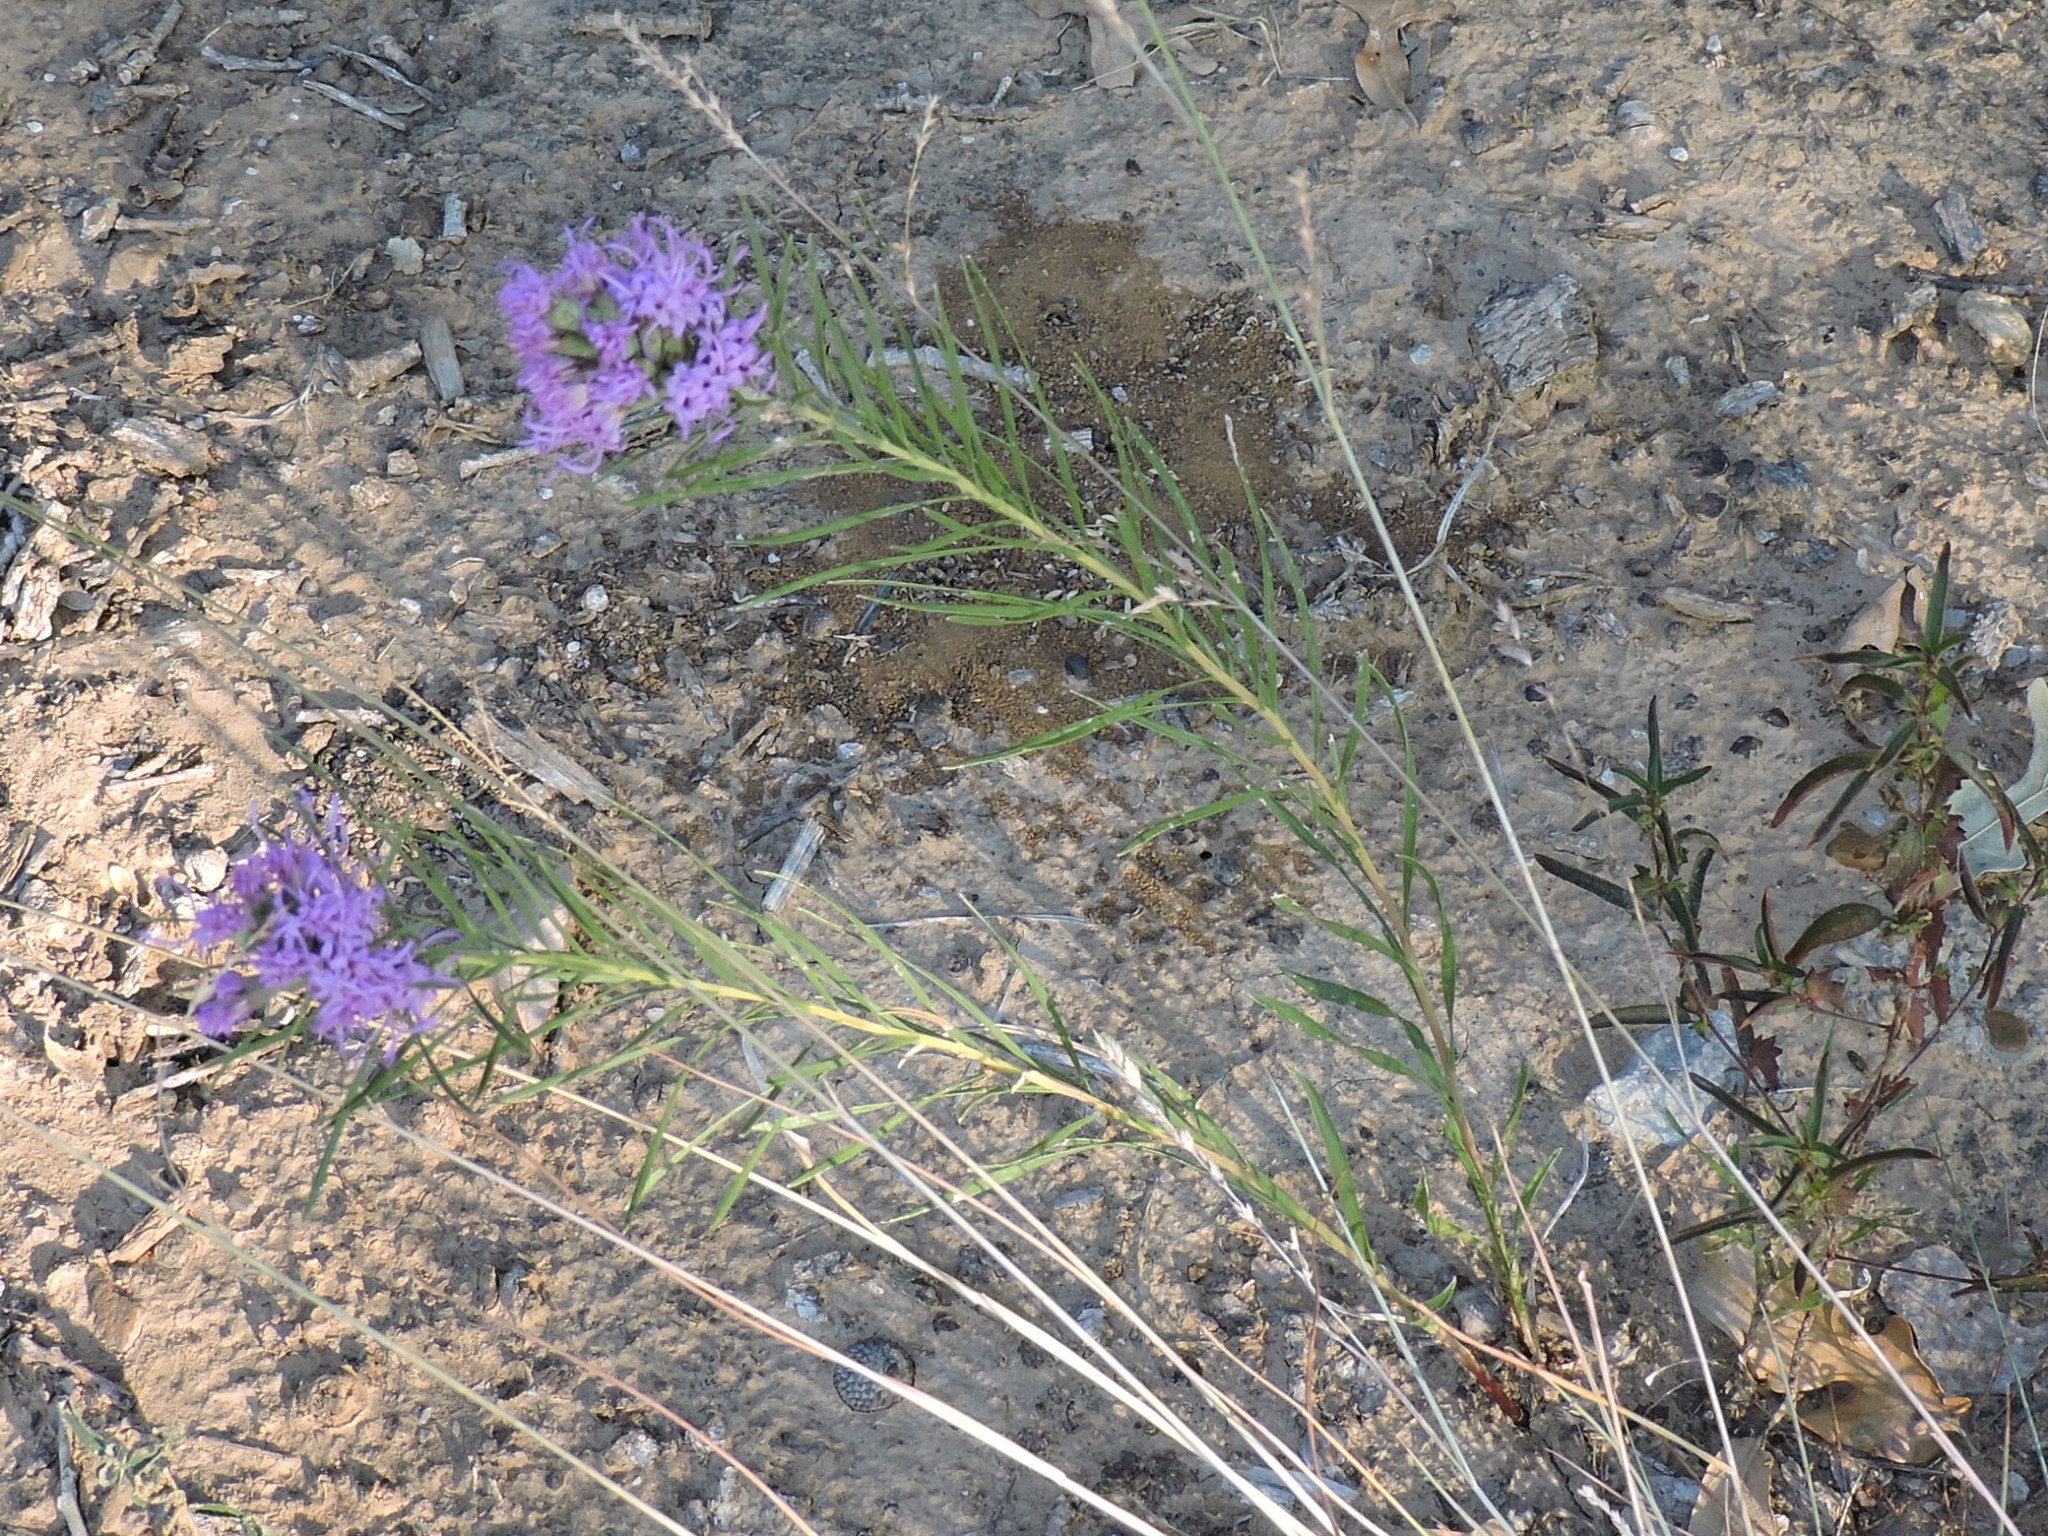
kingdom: Plantae
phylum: Tracheophyta
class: Magnoliopsida
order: Asterales
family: Asteraceae
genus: Liatris
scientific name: Liatris punctata
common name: Dotted gayfeather
